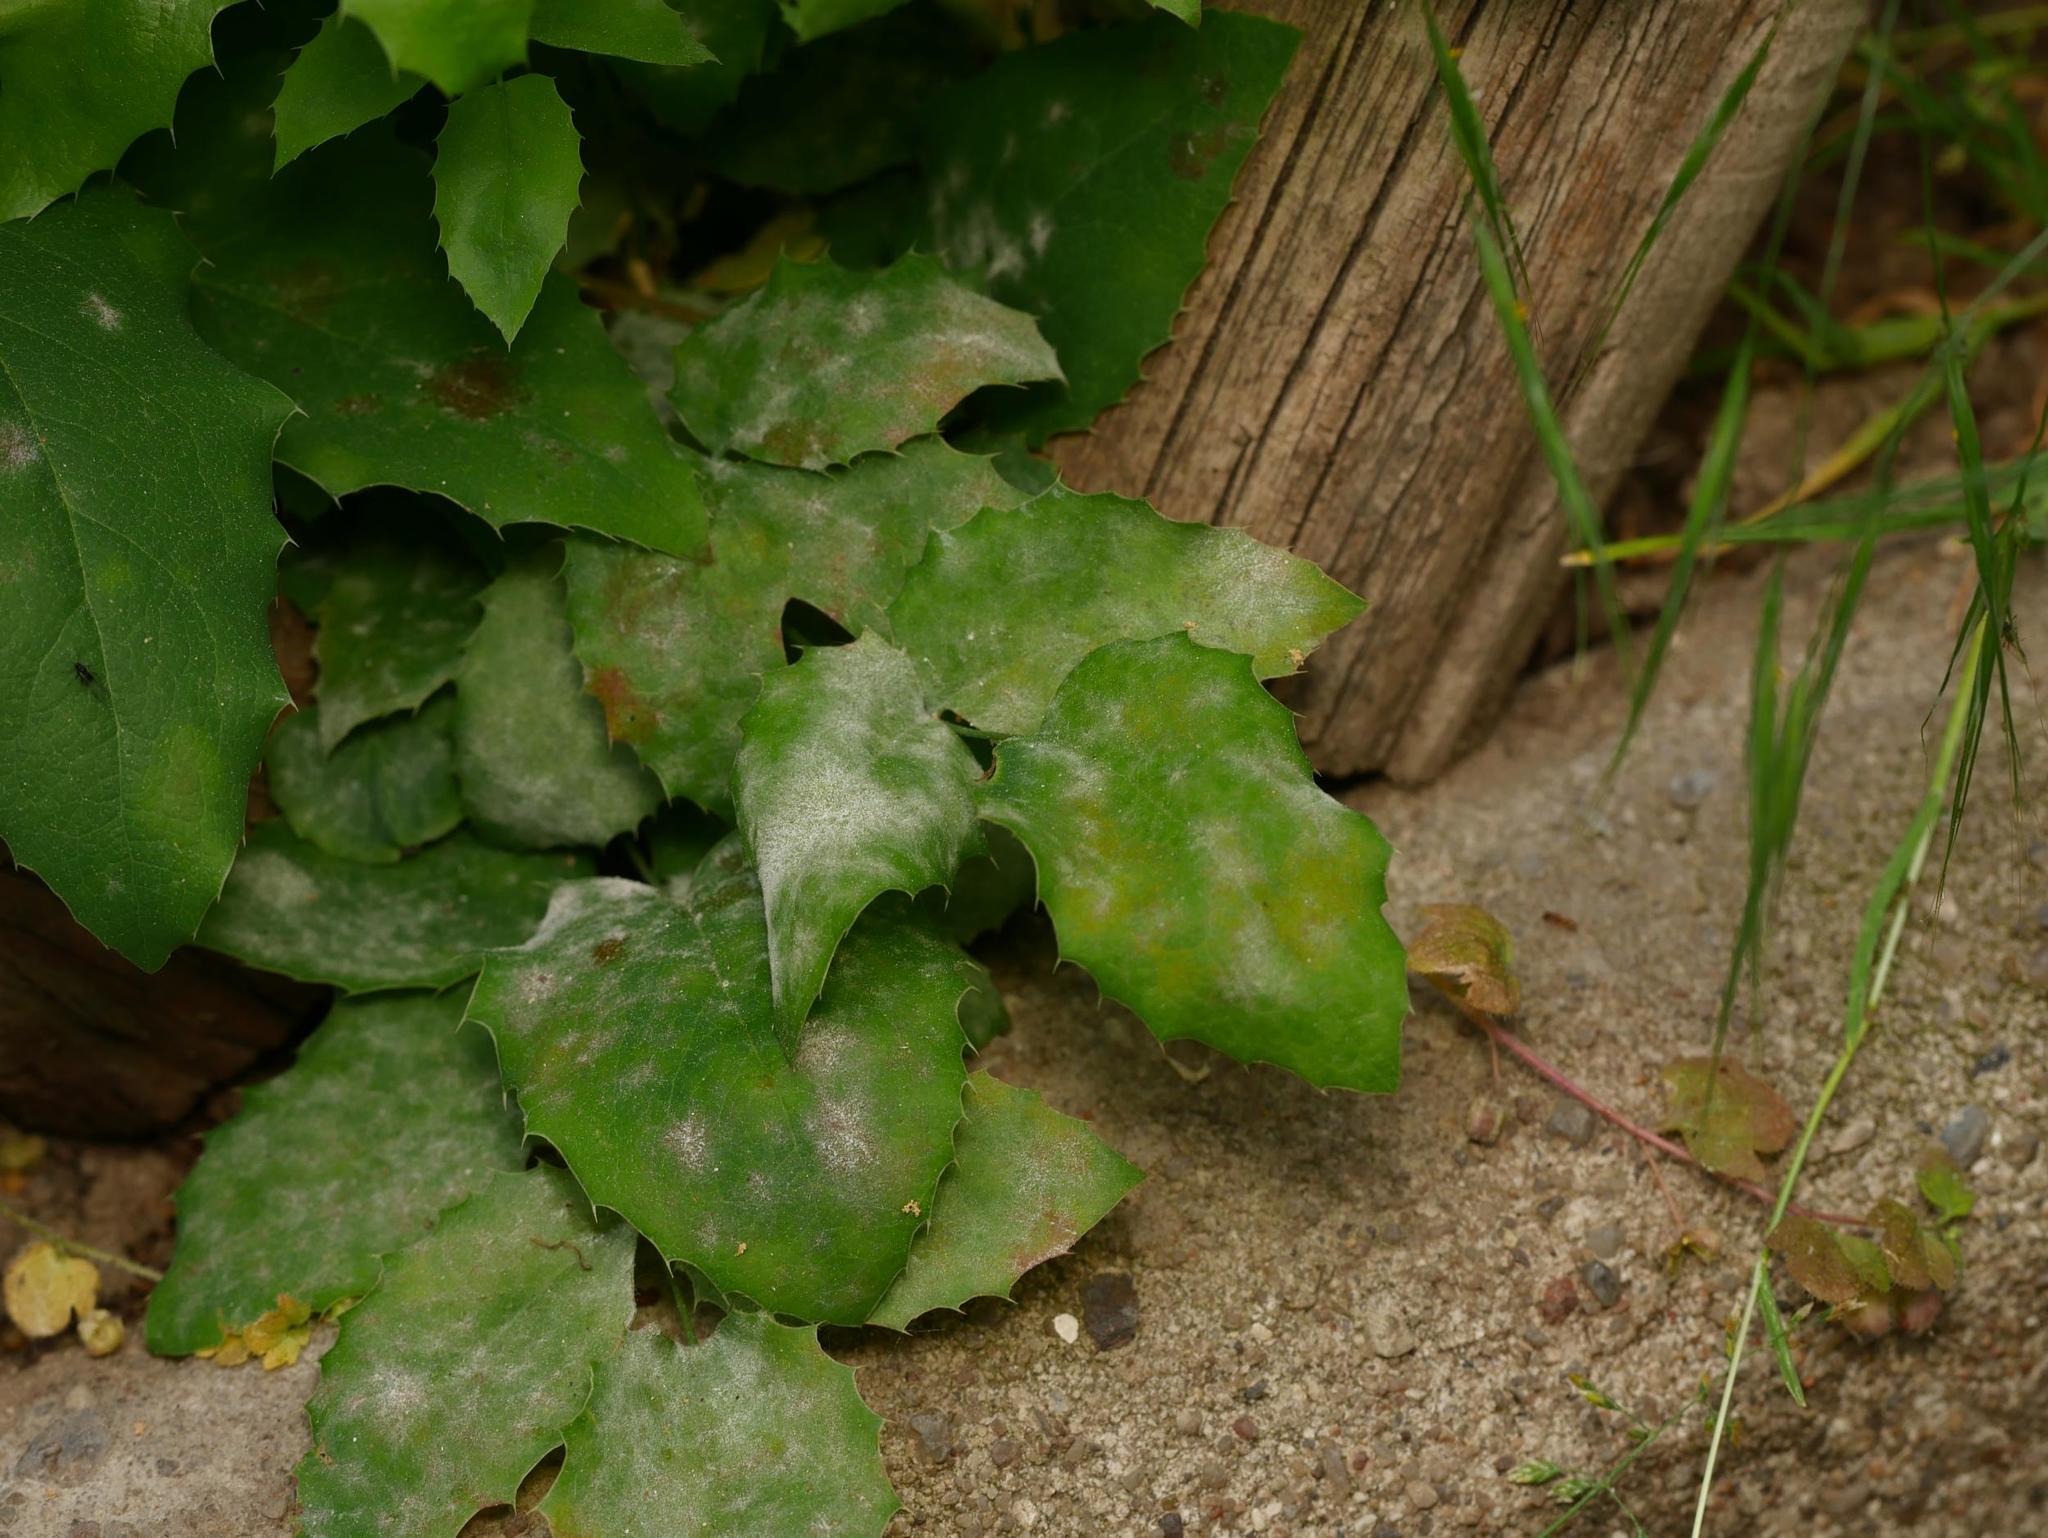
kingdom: Fungi
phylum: Ascomycota
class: Leotiomycetes
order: Helotiales
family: Erysiphaceae
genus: Erysiphe
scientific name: Erysiphe berberidis
